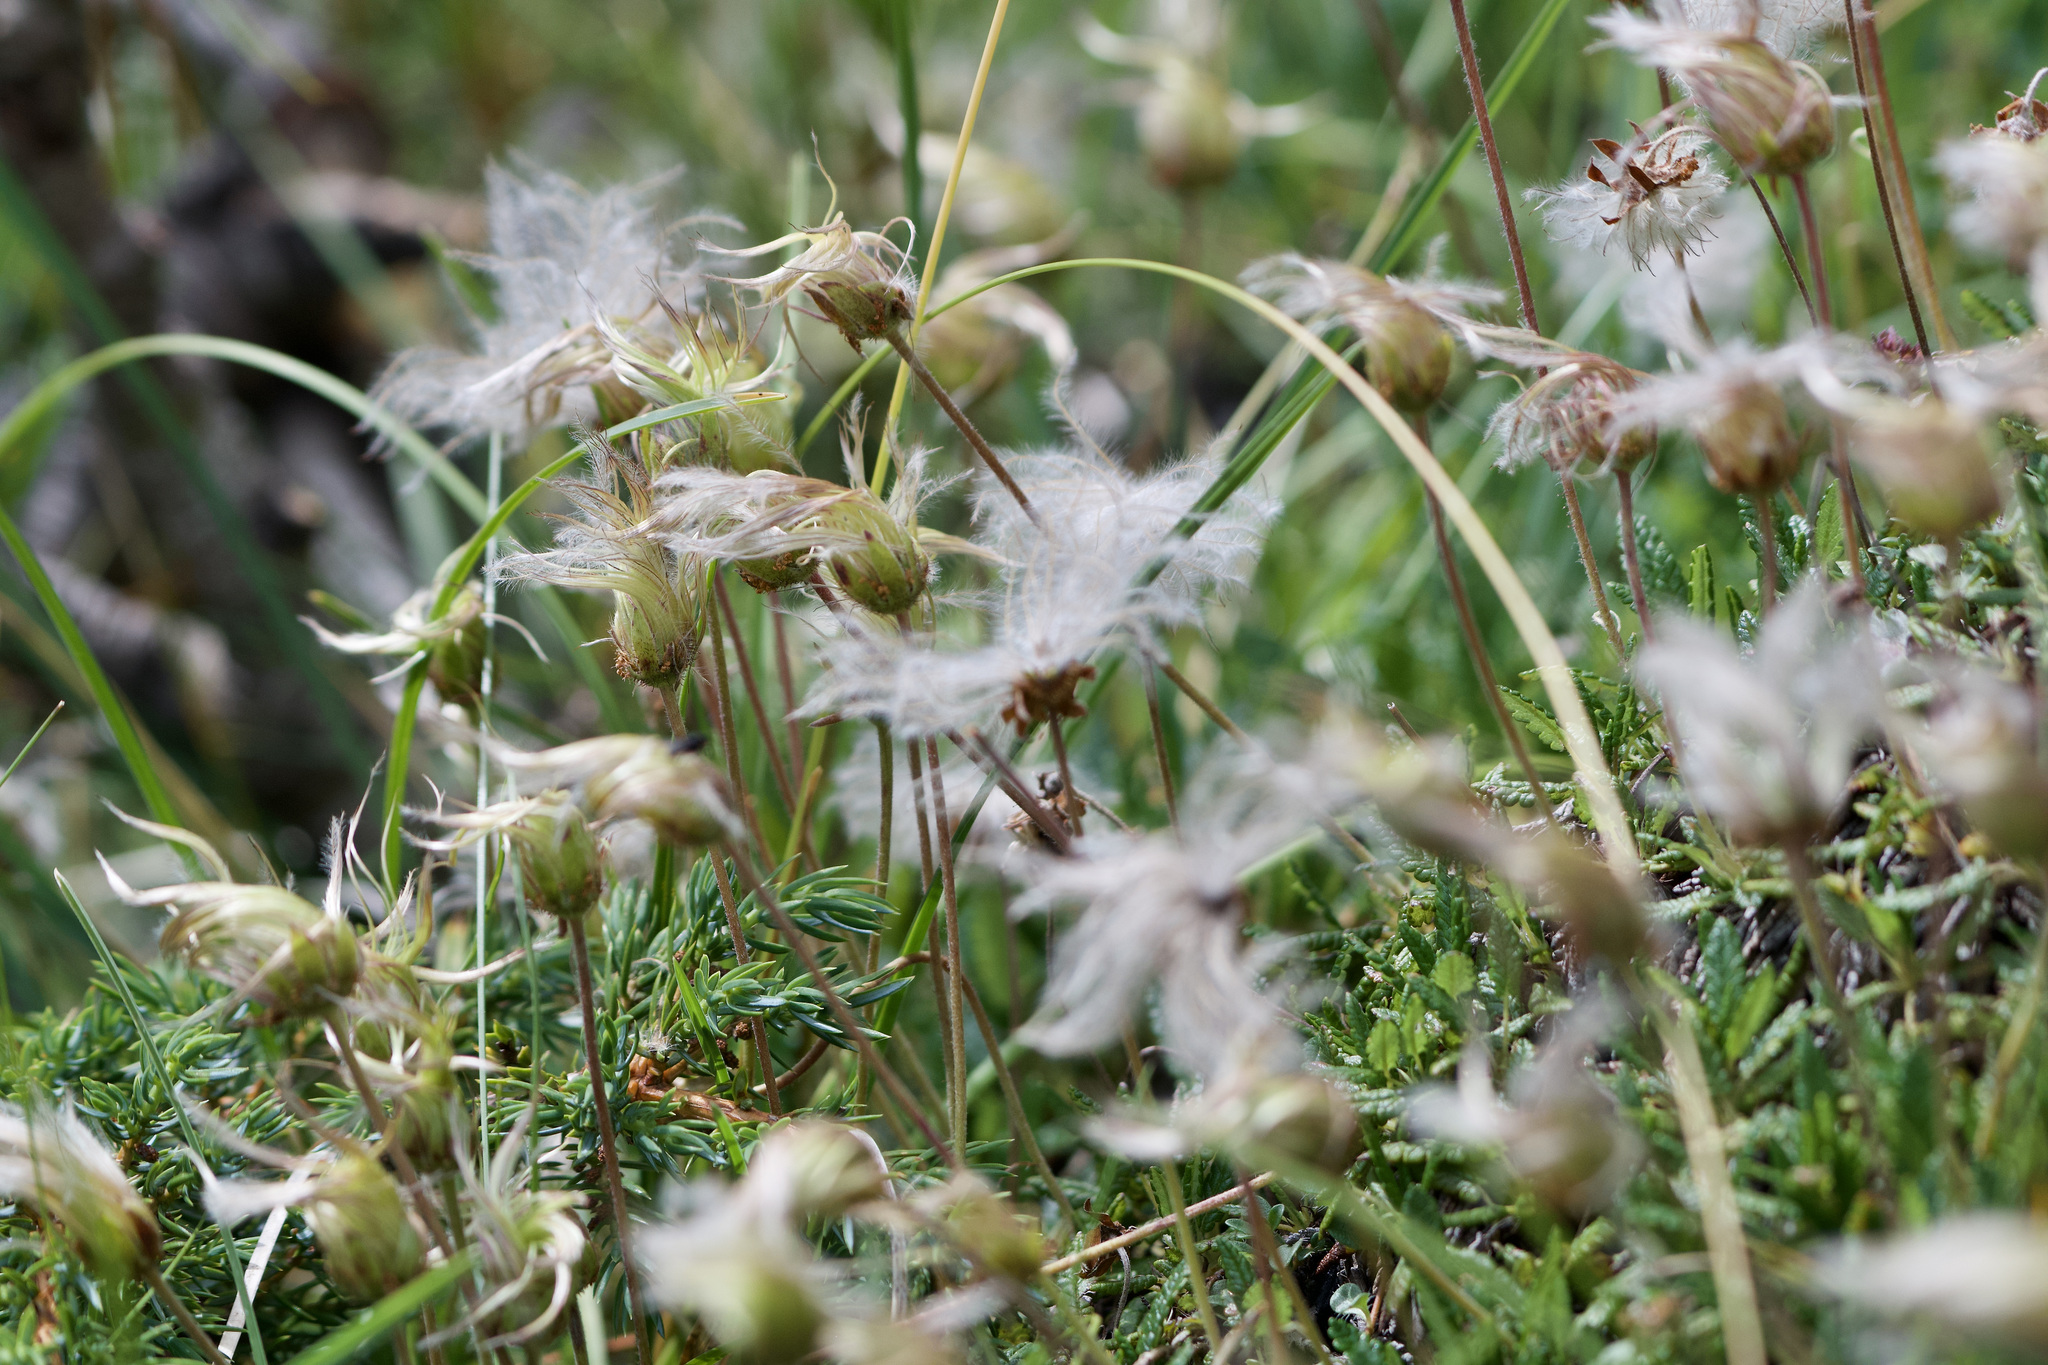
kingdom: Plantae
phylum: Tracheophyta
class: Magnoliopsida
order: Rosales
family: Rosaceae
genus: Dryas
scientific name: Dryas octopetala
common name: Eight-petal mountain-avens
